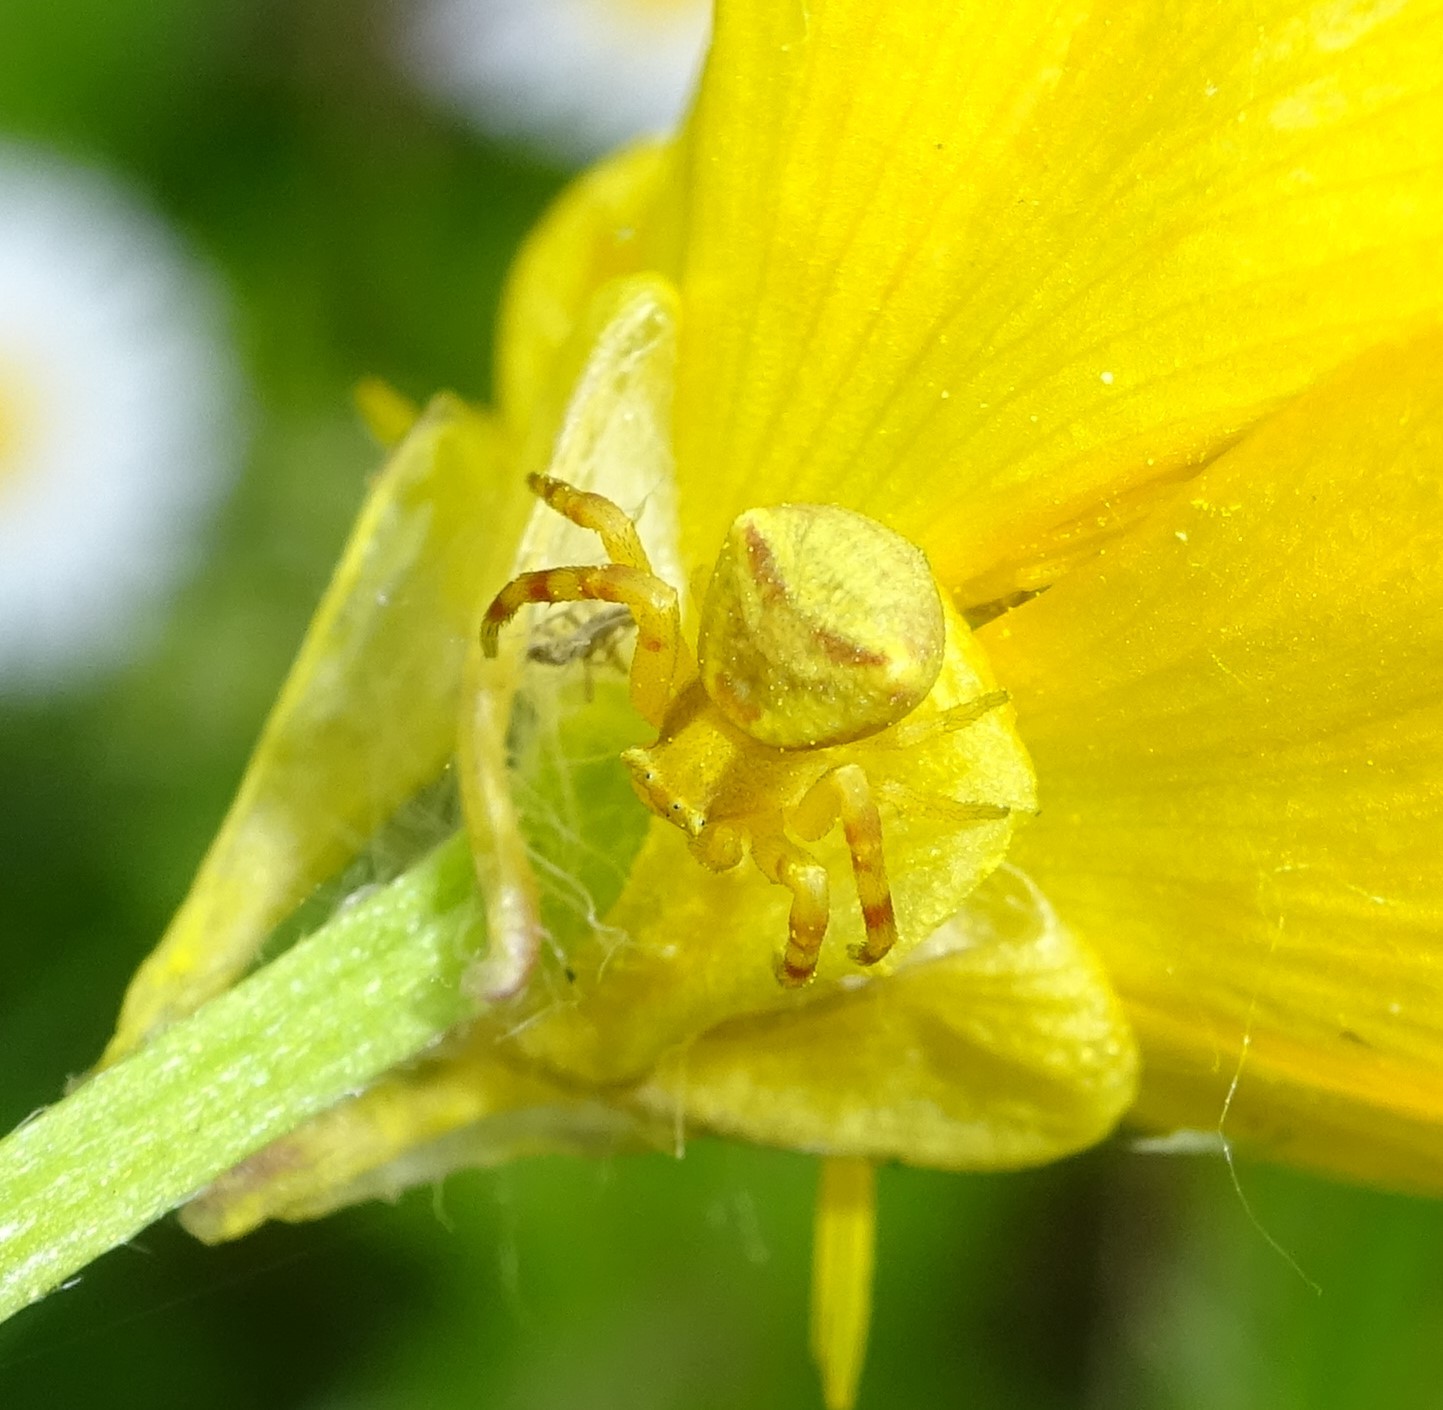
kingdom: Animalia
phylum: Arthropoda
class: Arachnida
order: Araneae
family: Thomisidae
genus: Thomisus
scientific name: Thomisus onustus
